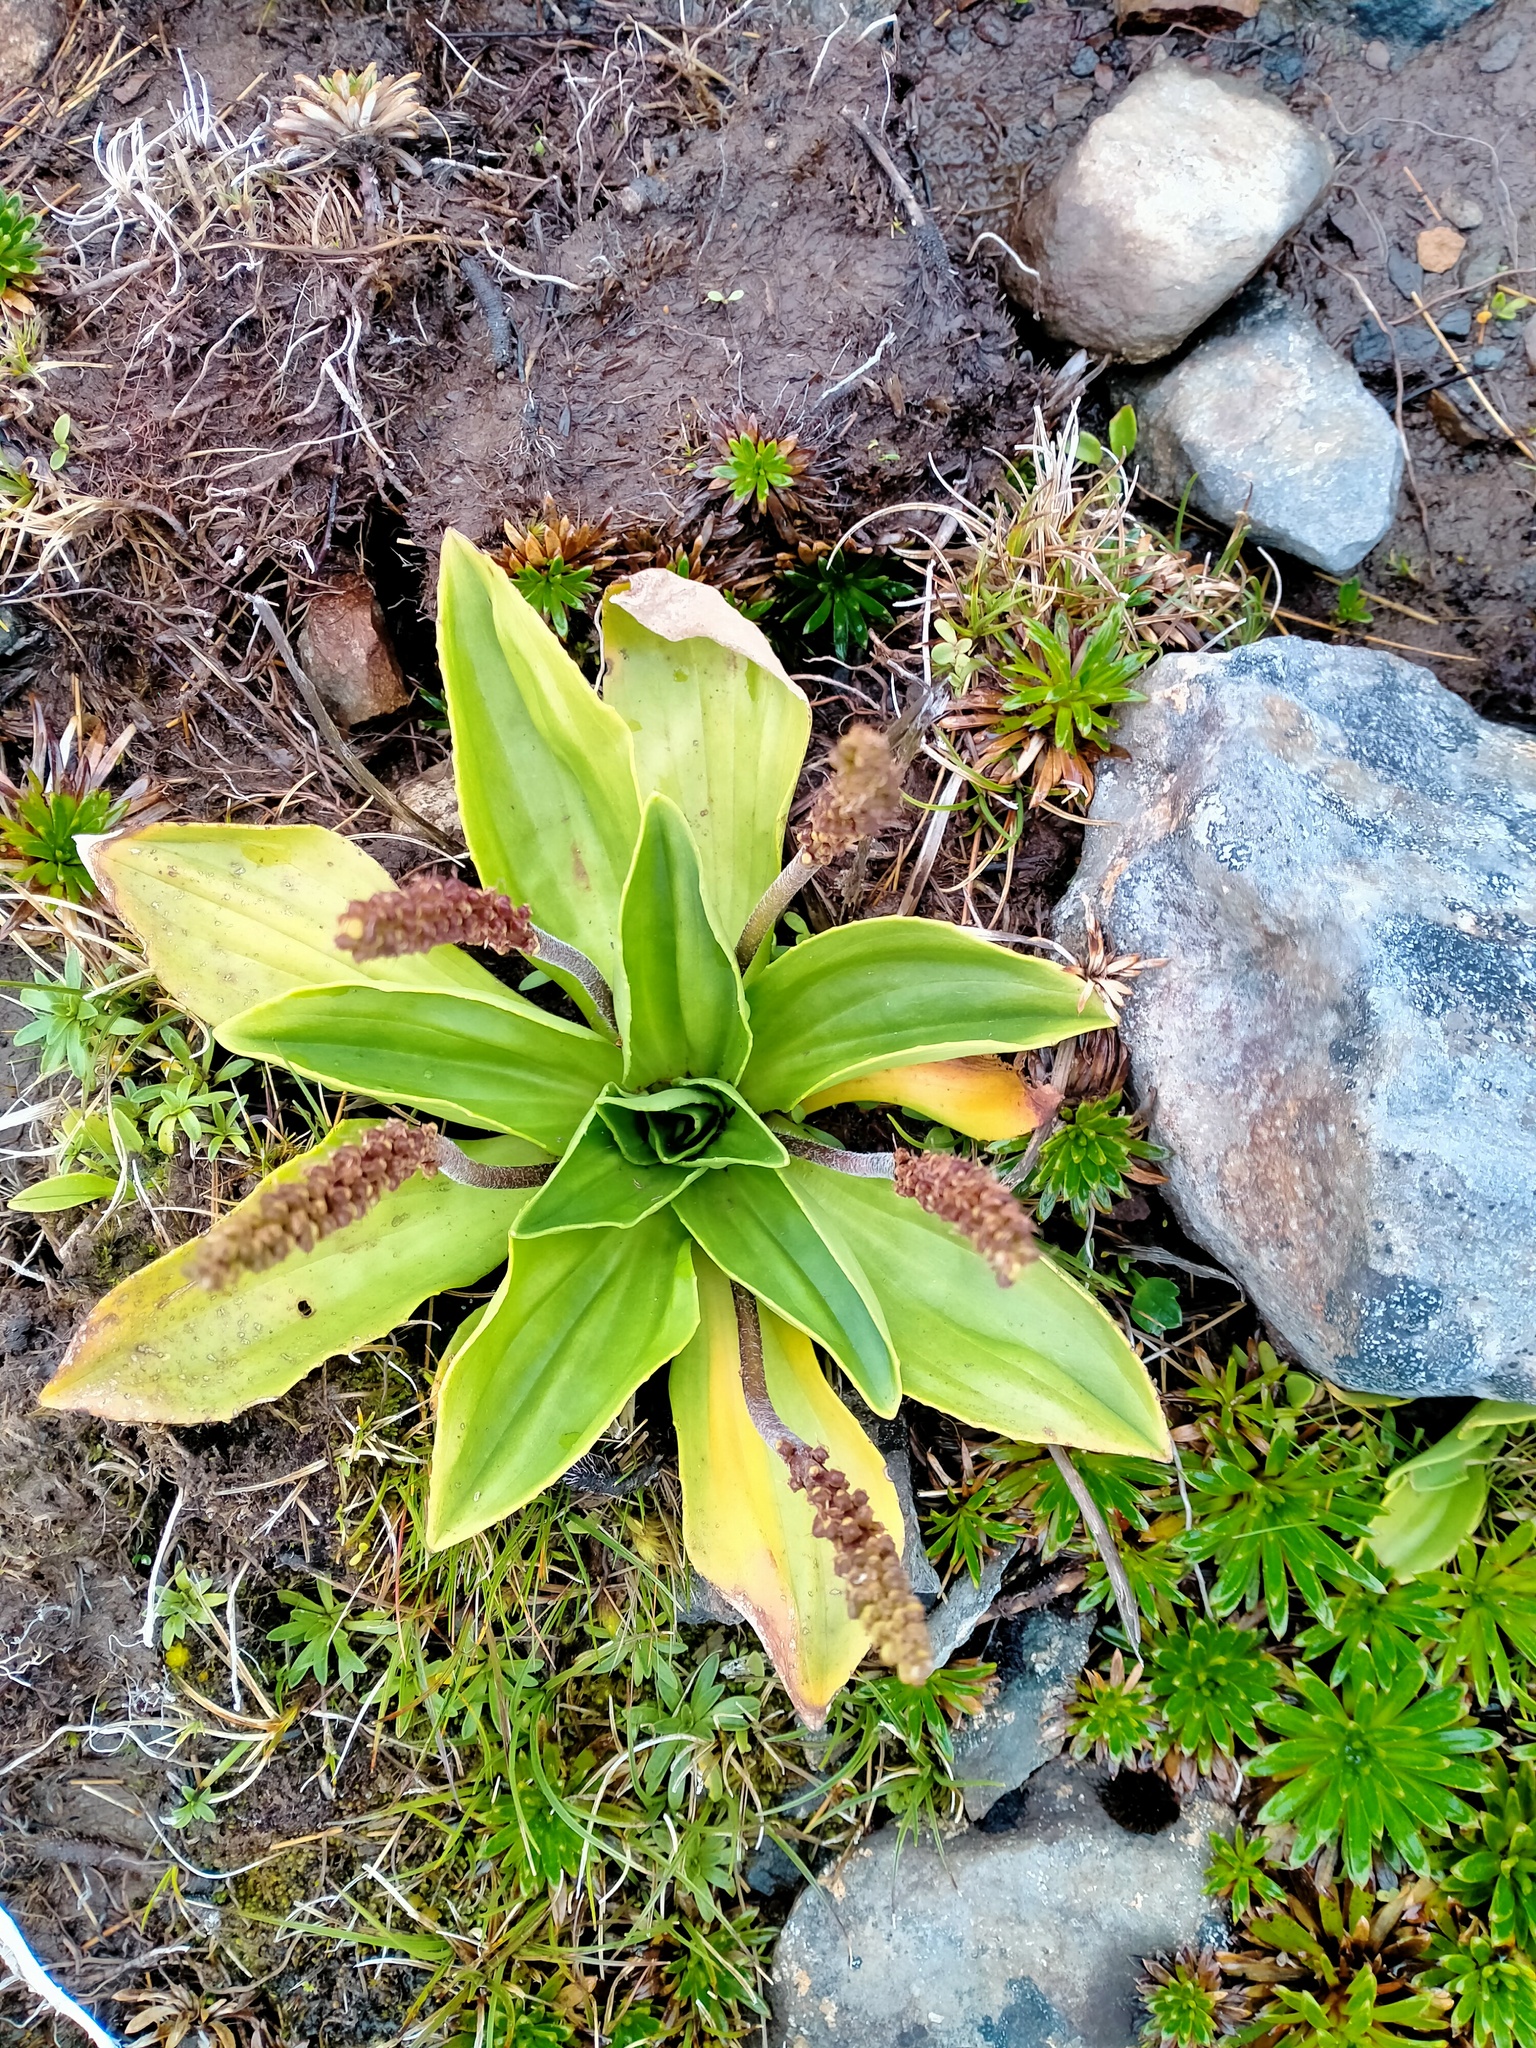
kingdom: Plantae
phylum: Tracheophyta
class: Magnoliopsida
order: Lamiales
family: Plantaginaceae
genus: Plantago
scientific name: Plantago aucklandica
